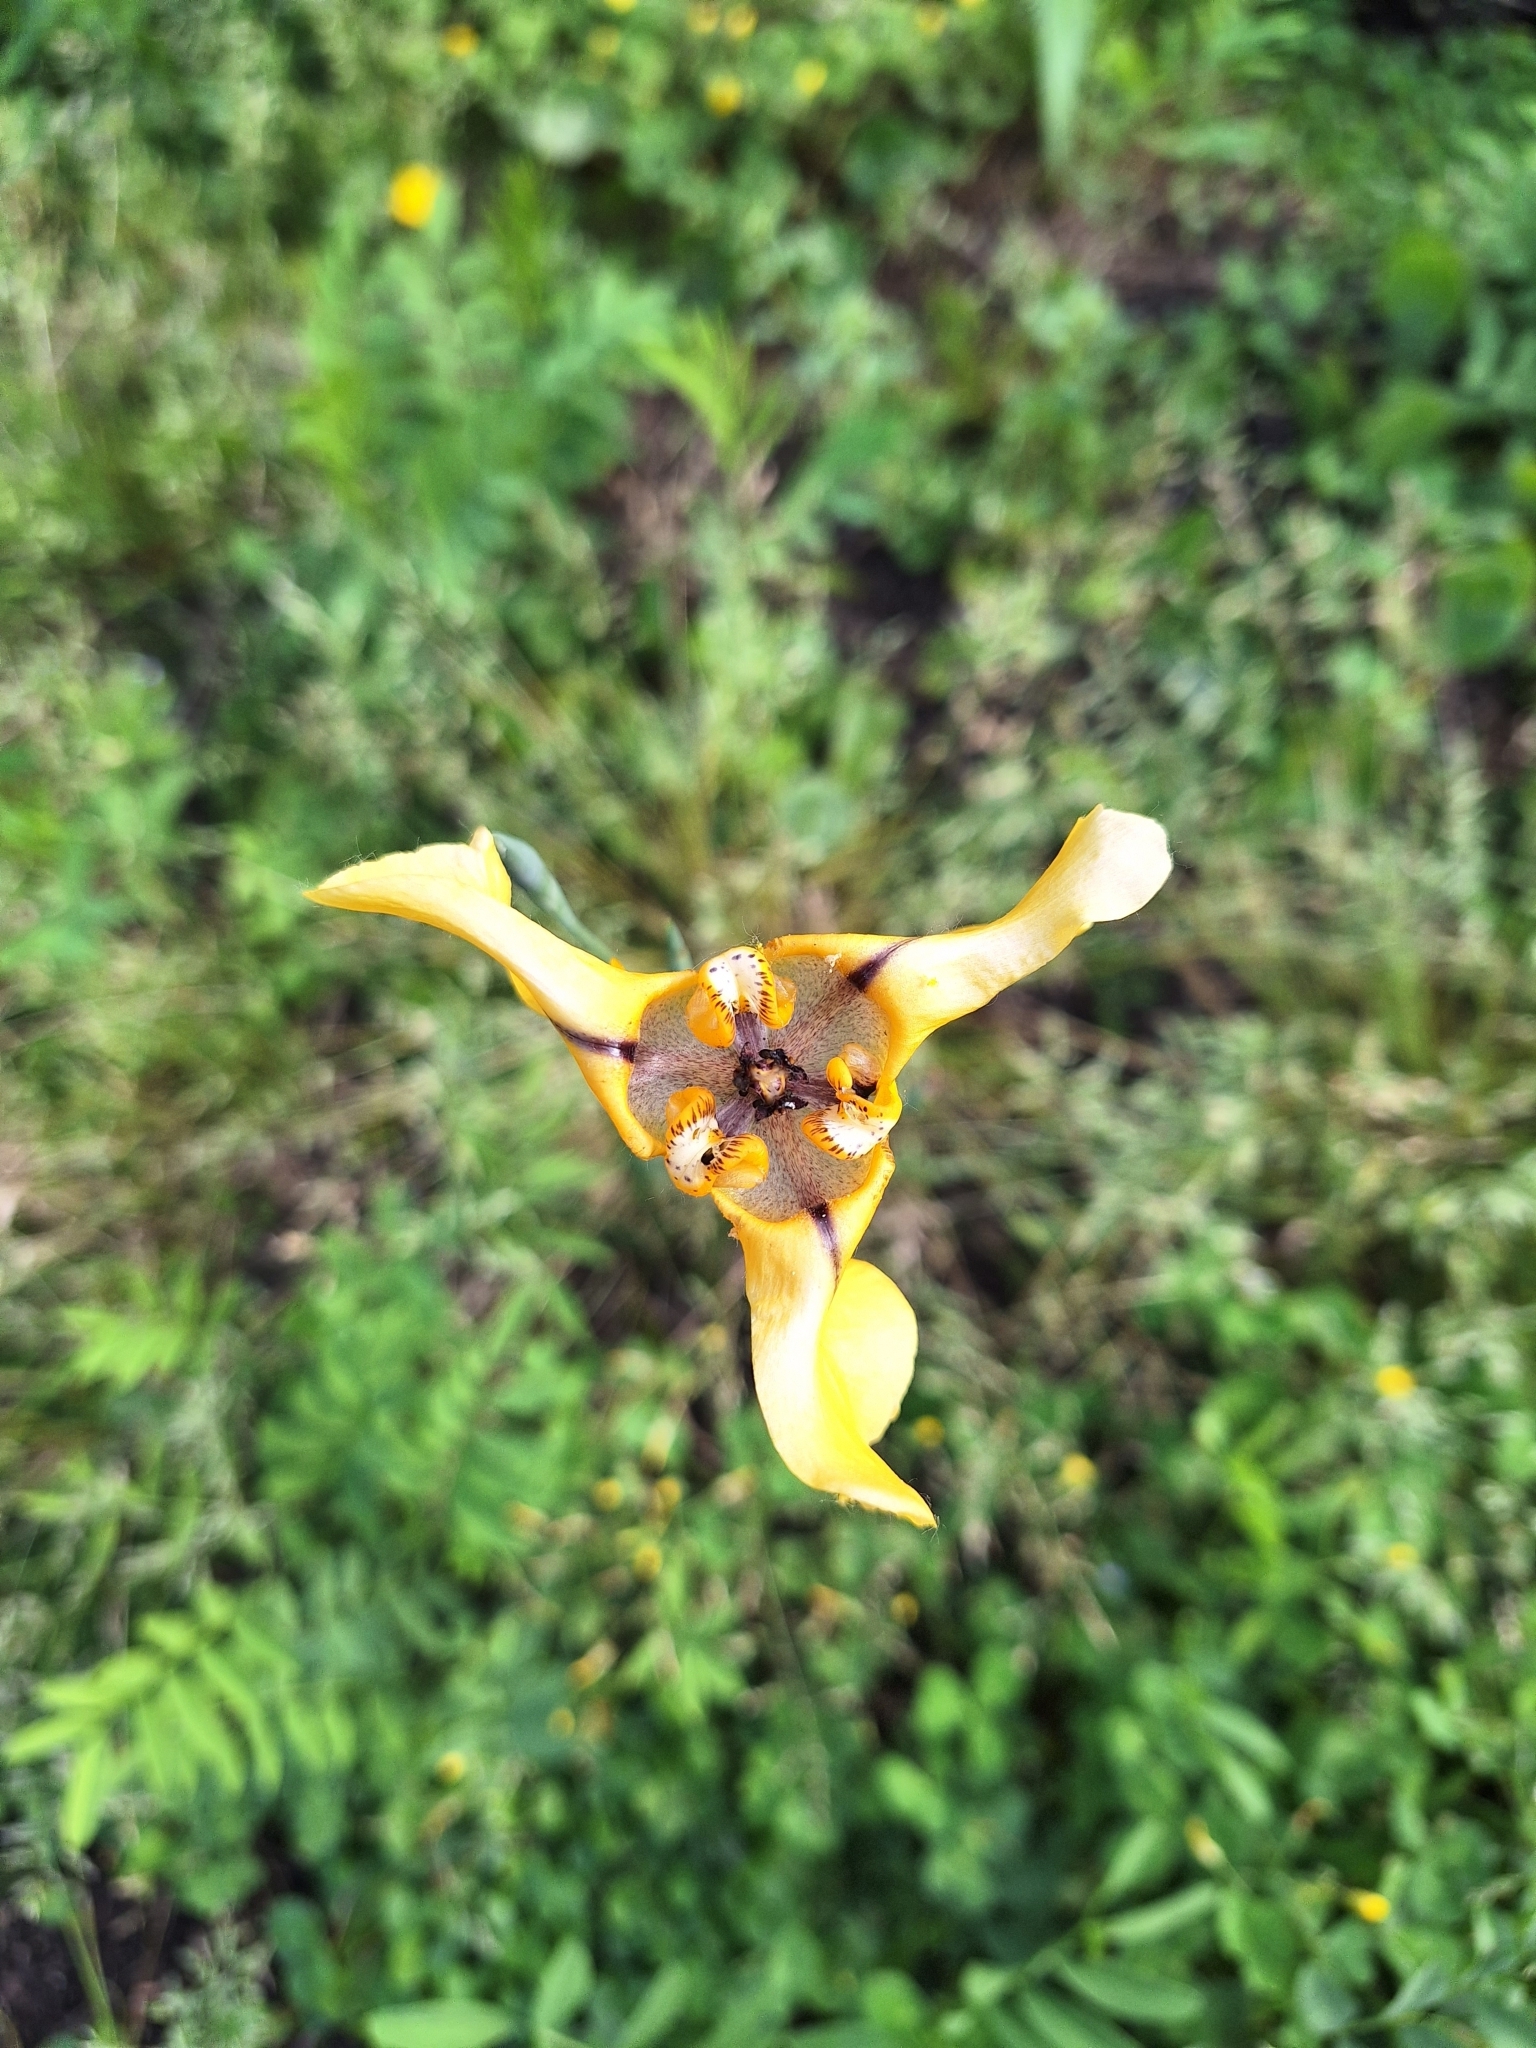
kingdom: Plantae
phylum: Tracheophyta
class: Liliopsida
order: Asparagales
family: Iridaceae
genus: Cypella
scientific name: Cypella herbertii
